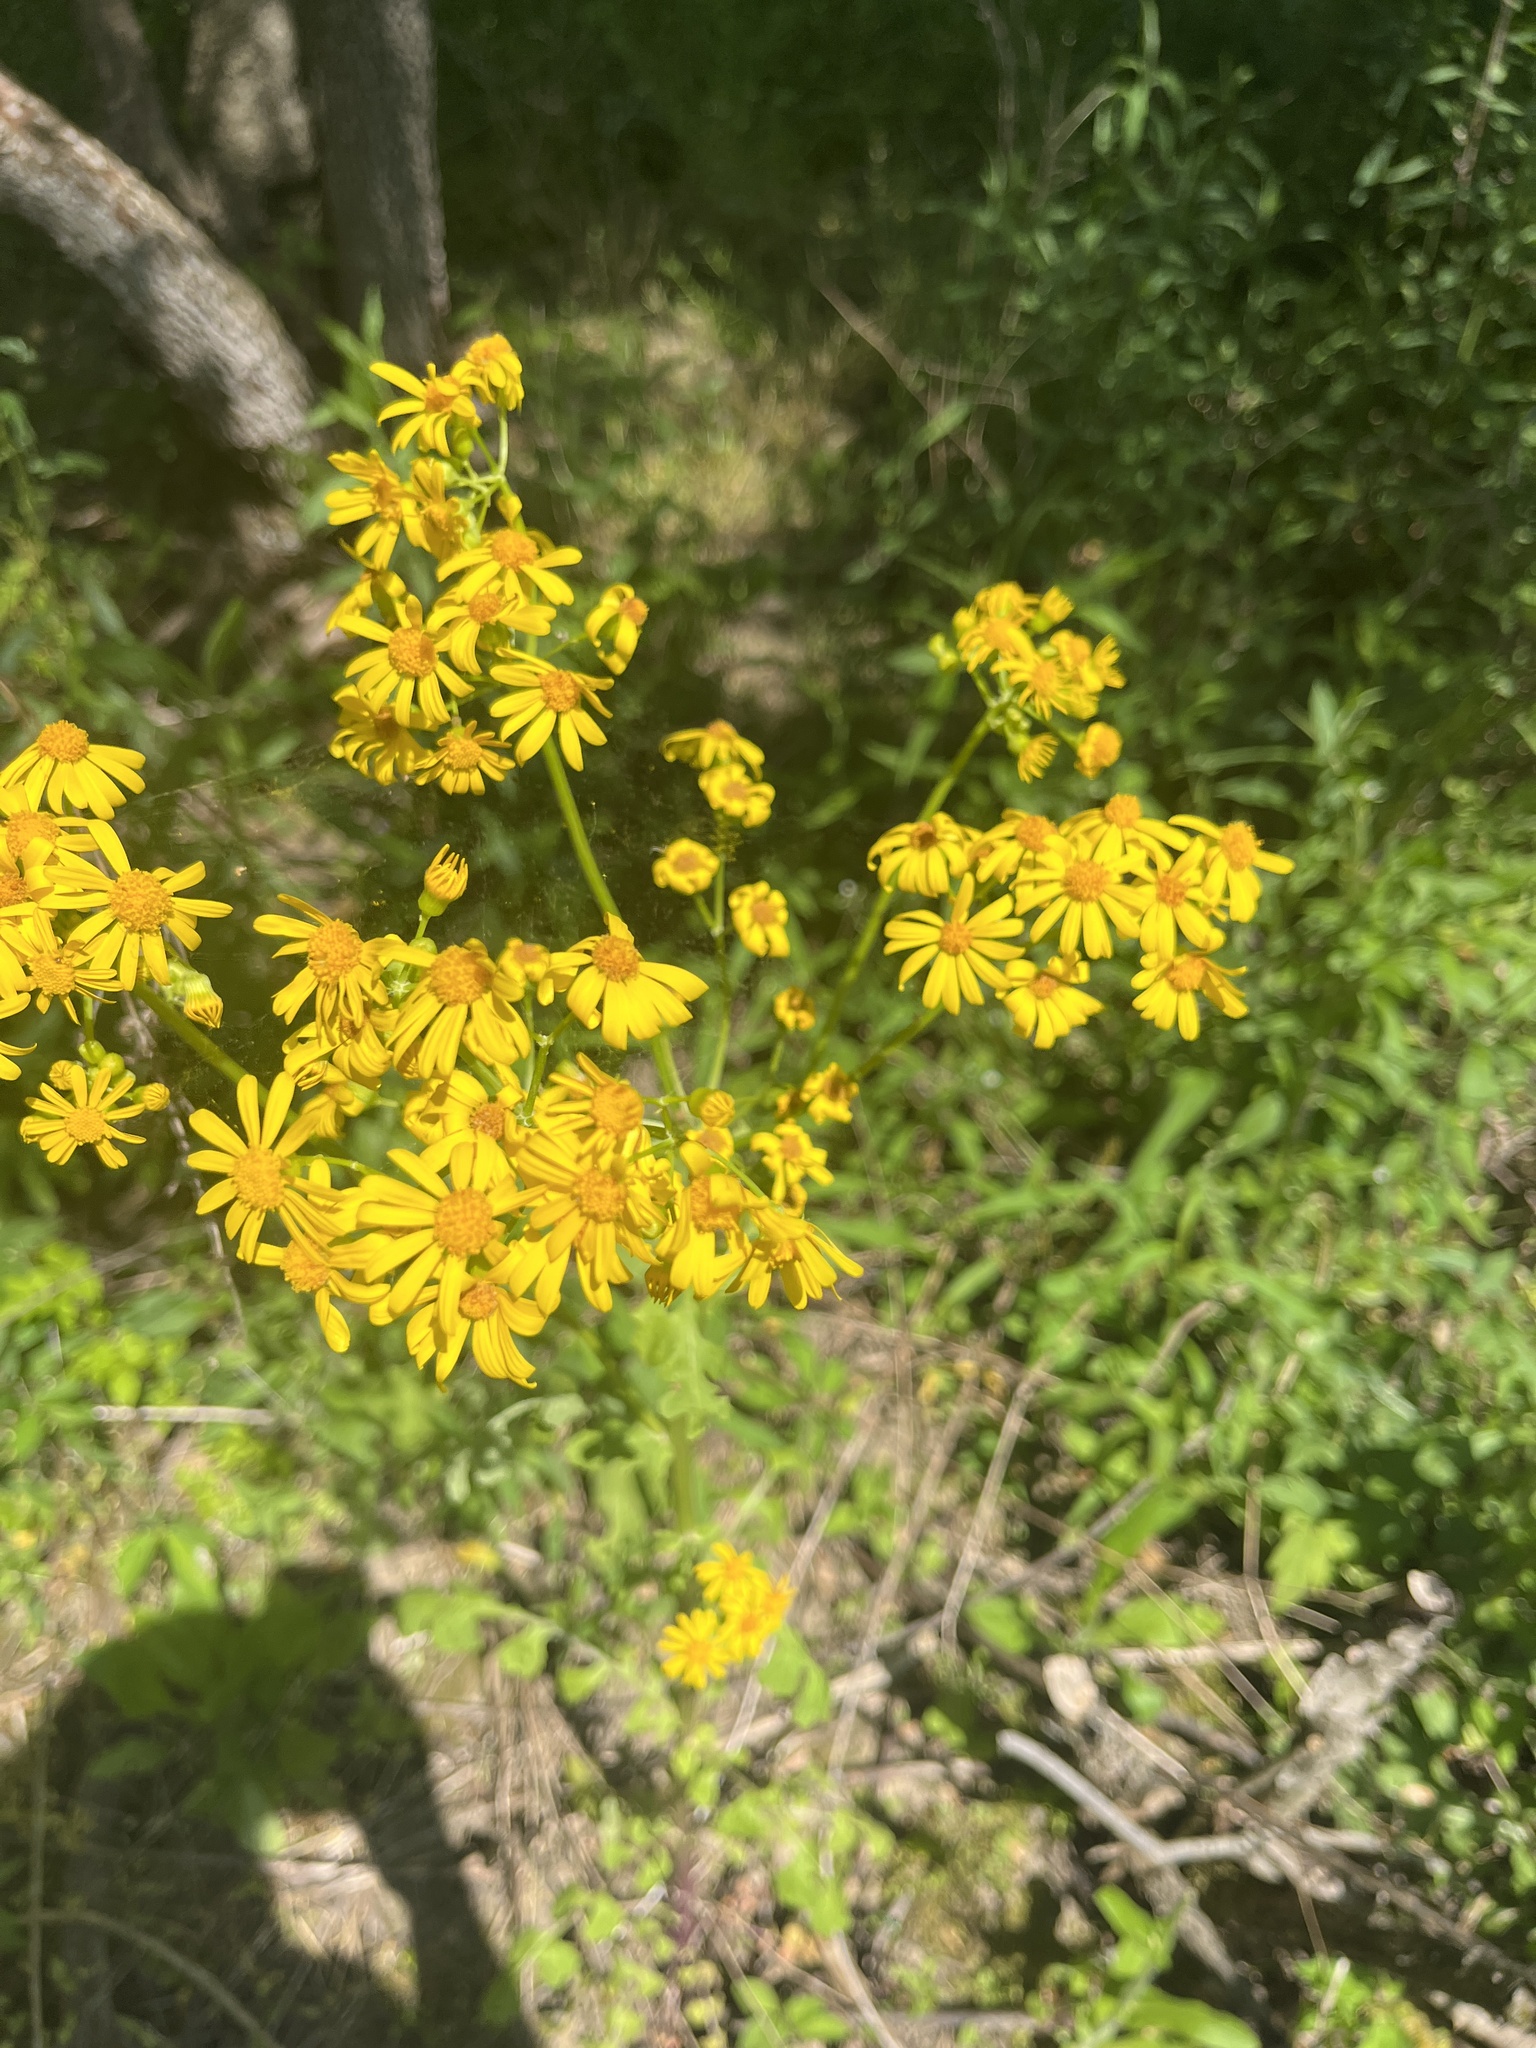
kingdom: Plantae
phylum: Tracheophyta
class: Magnoliopsida
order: Asterales
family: Asteraceae
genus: Packera
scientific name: Packera glabella
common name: Butterweed
